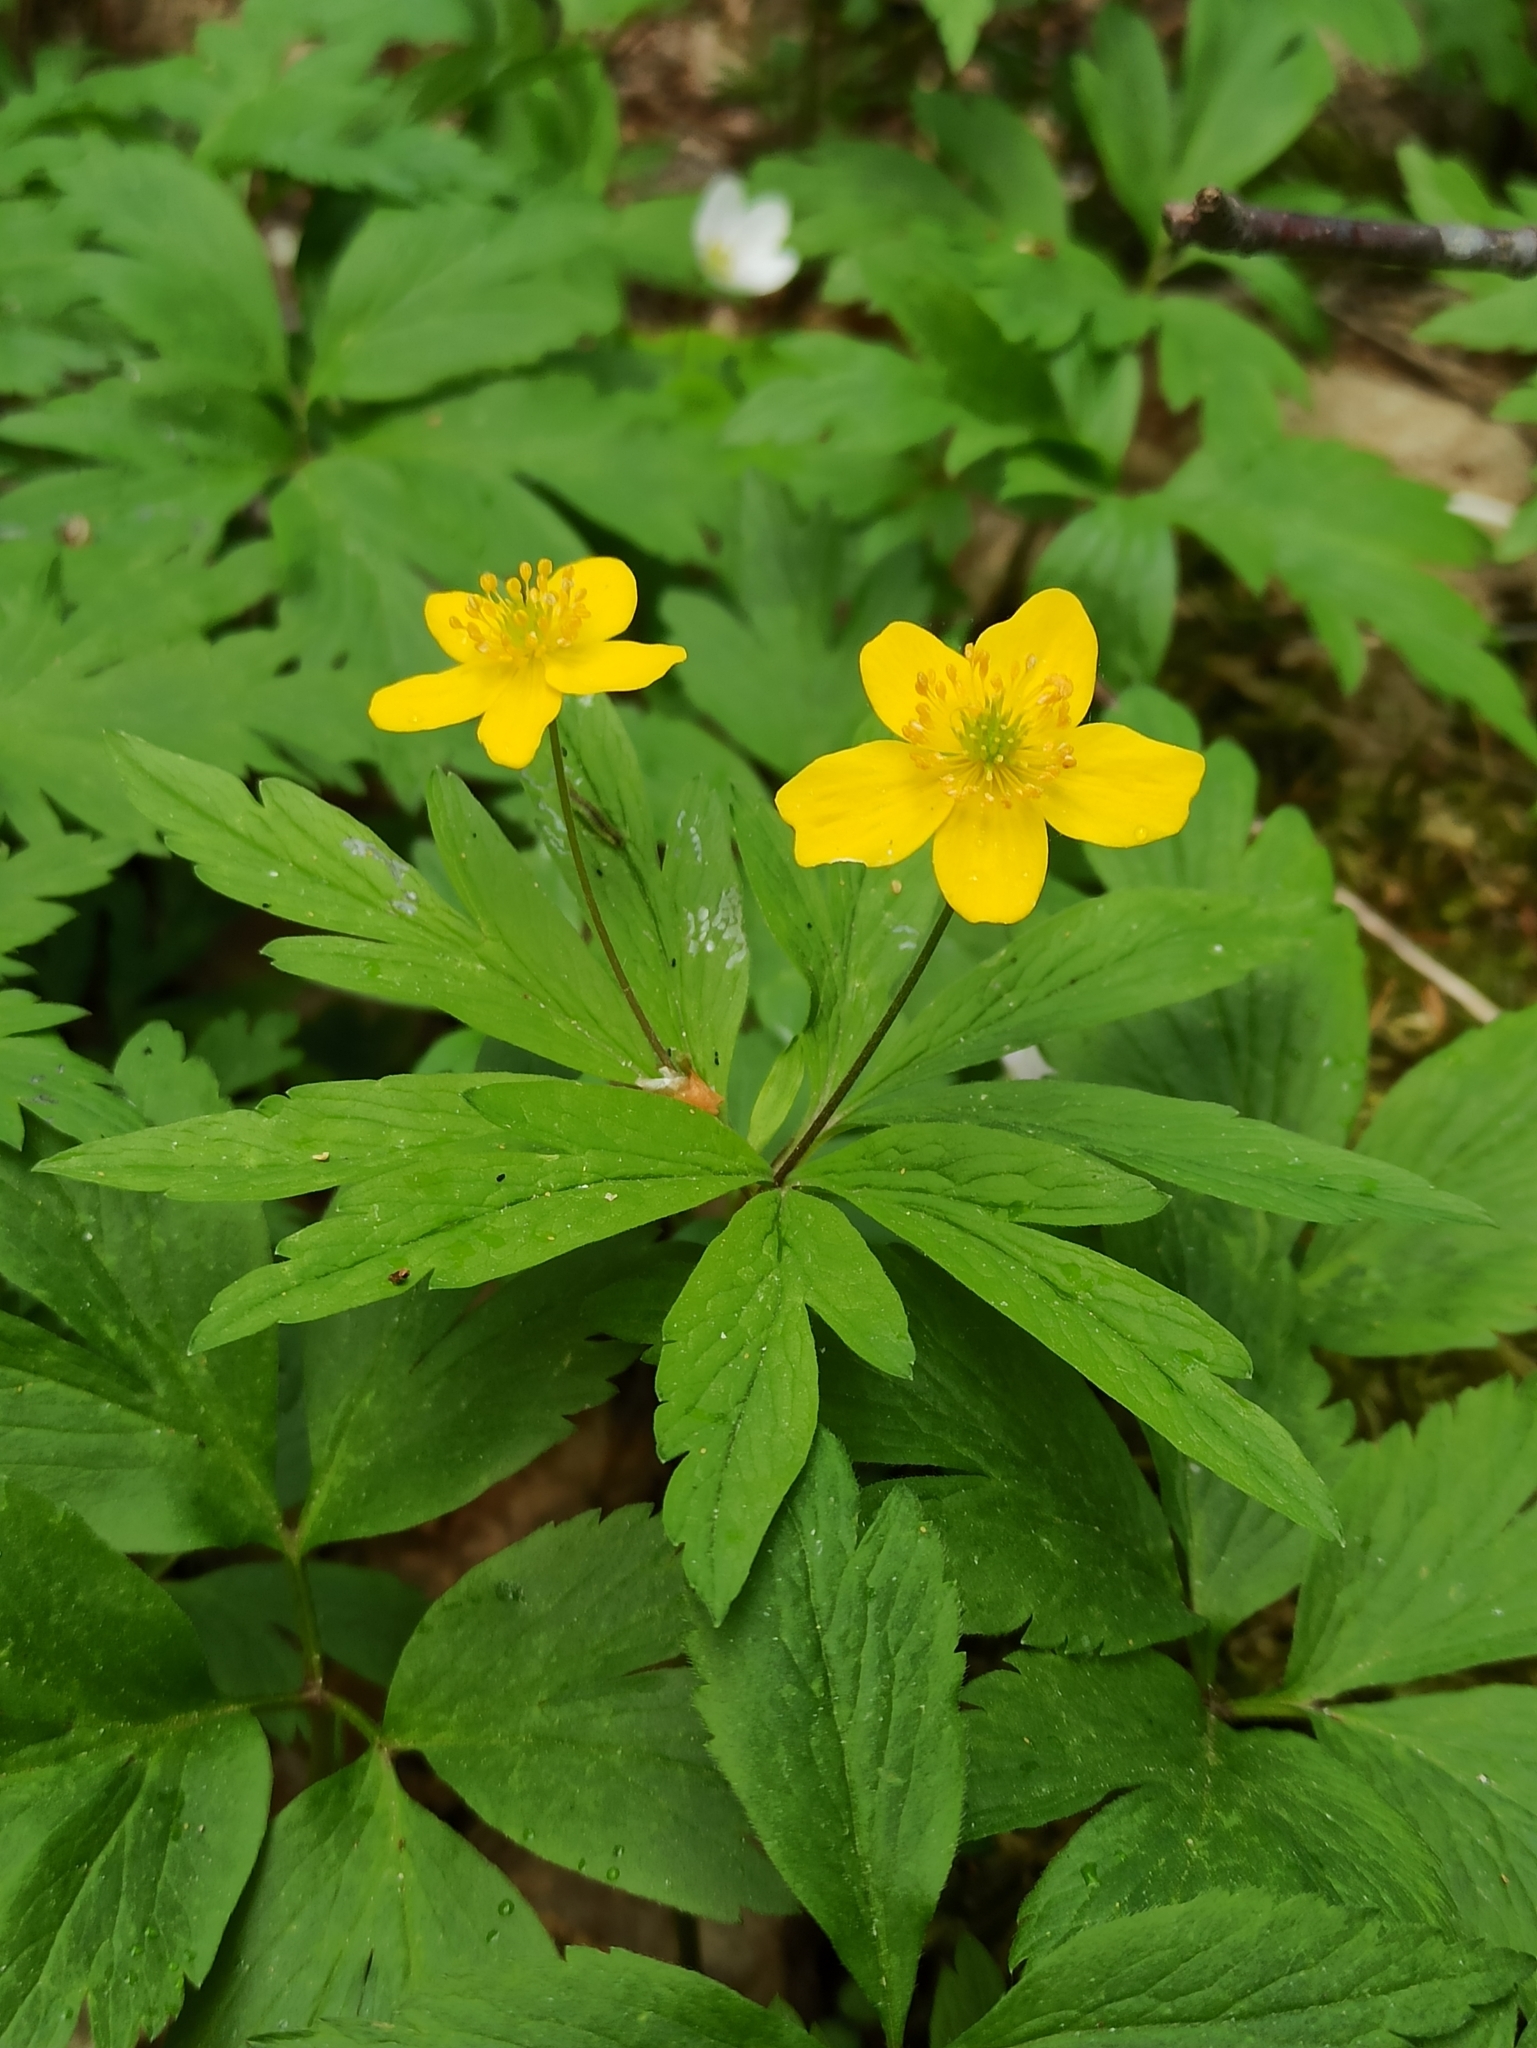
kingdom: Plantae
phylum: Tracheophyta
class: Magnoliopsida
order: Ranunculales
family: Ranunculaceae
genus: Anemone
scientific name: Anemone ranunculoides
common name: Yellow anemone
